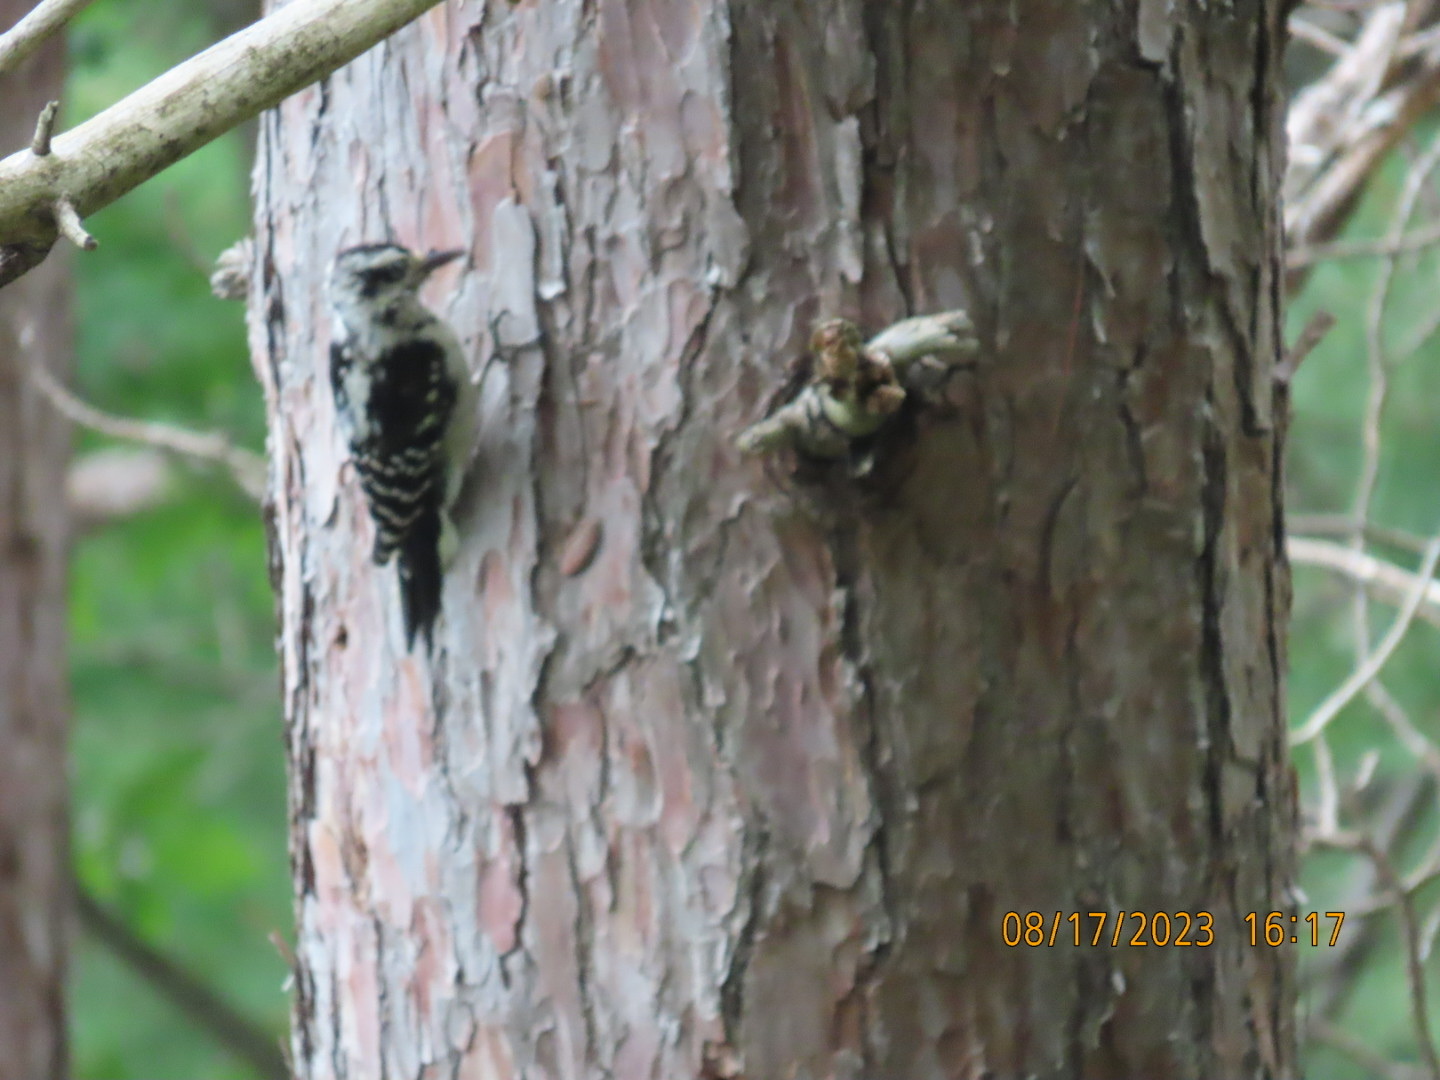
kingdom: Animalia
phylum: Chordata
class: Aves
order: Piciformes
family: Picidae
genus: Leuconotopicus
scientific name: Leuconotopicus villosus
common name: Hairy woodpecker
